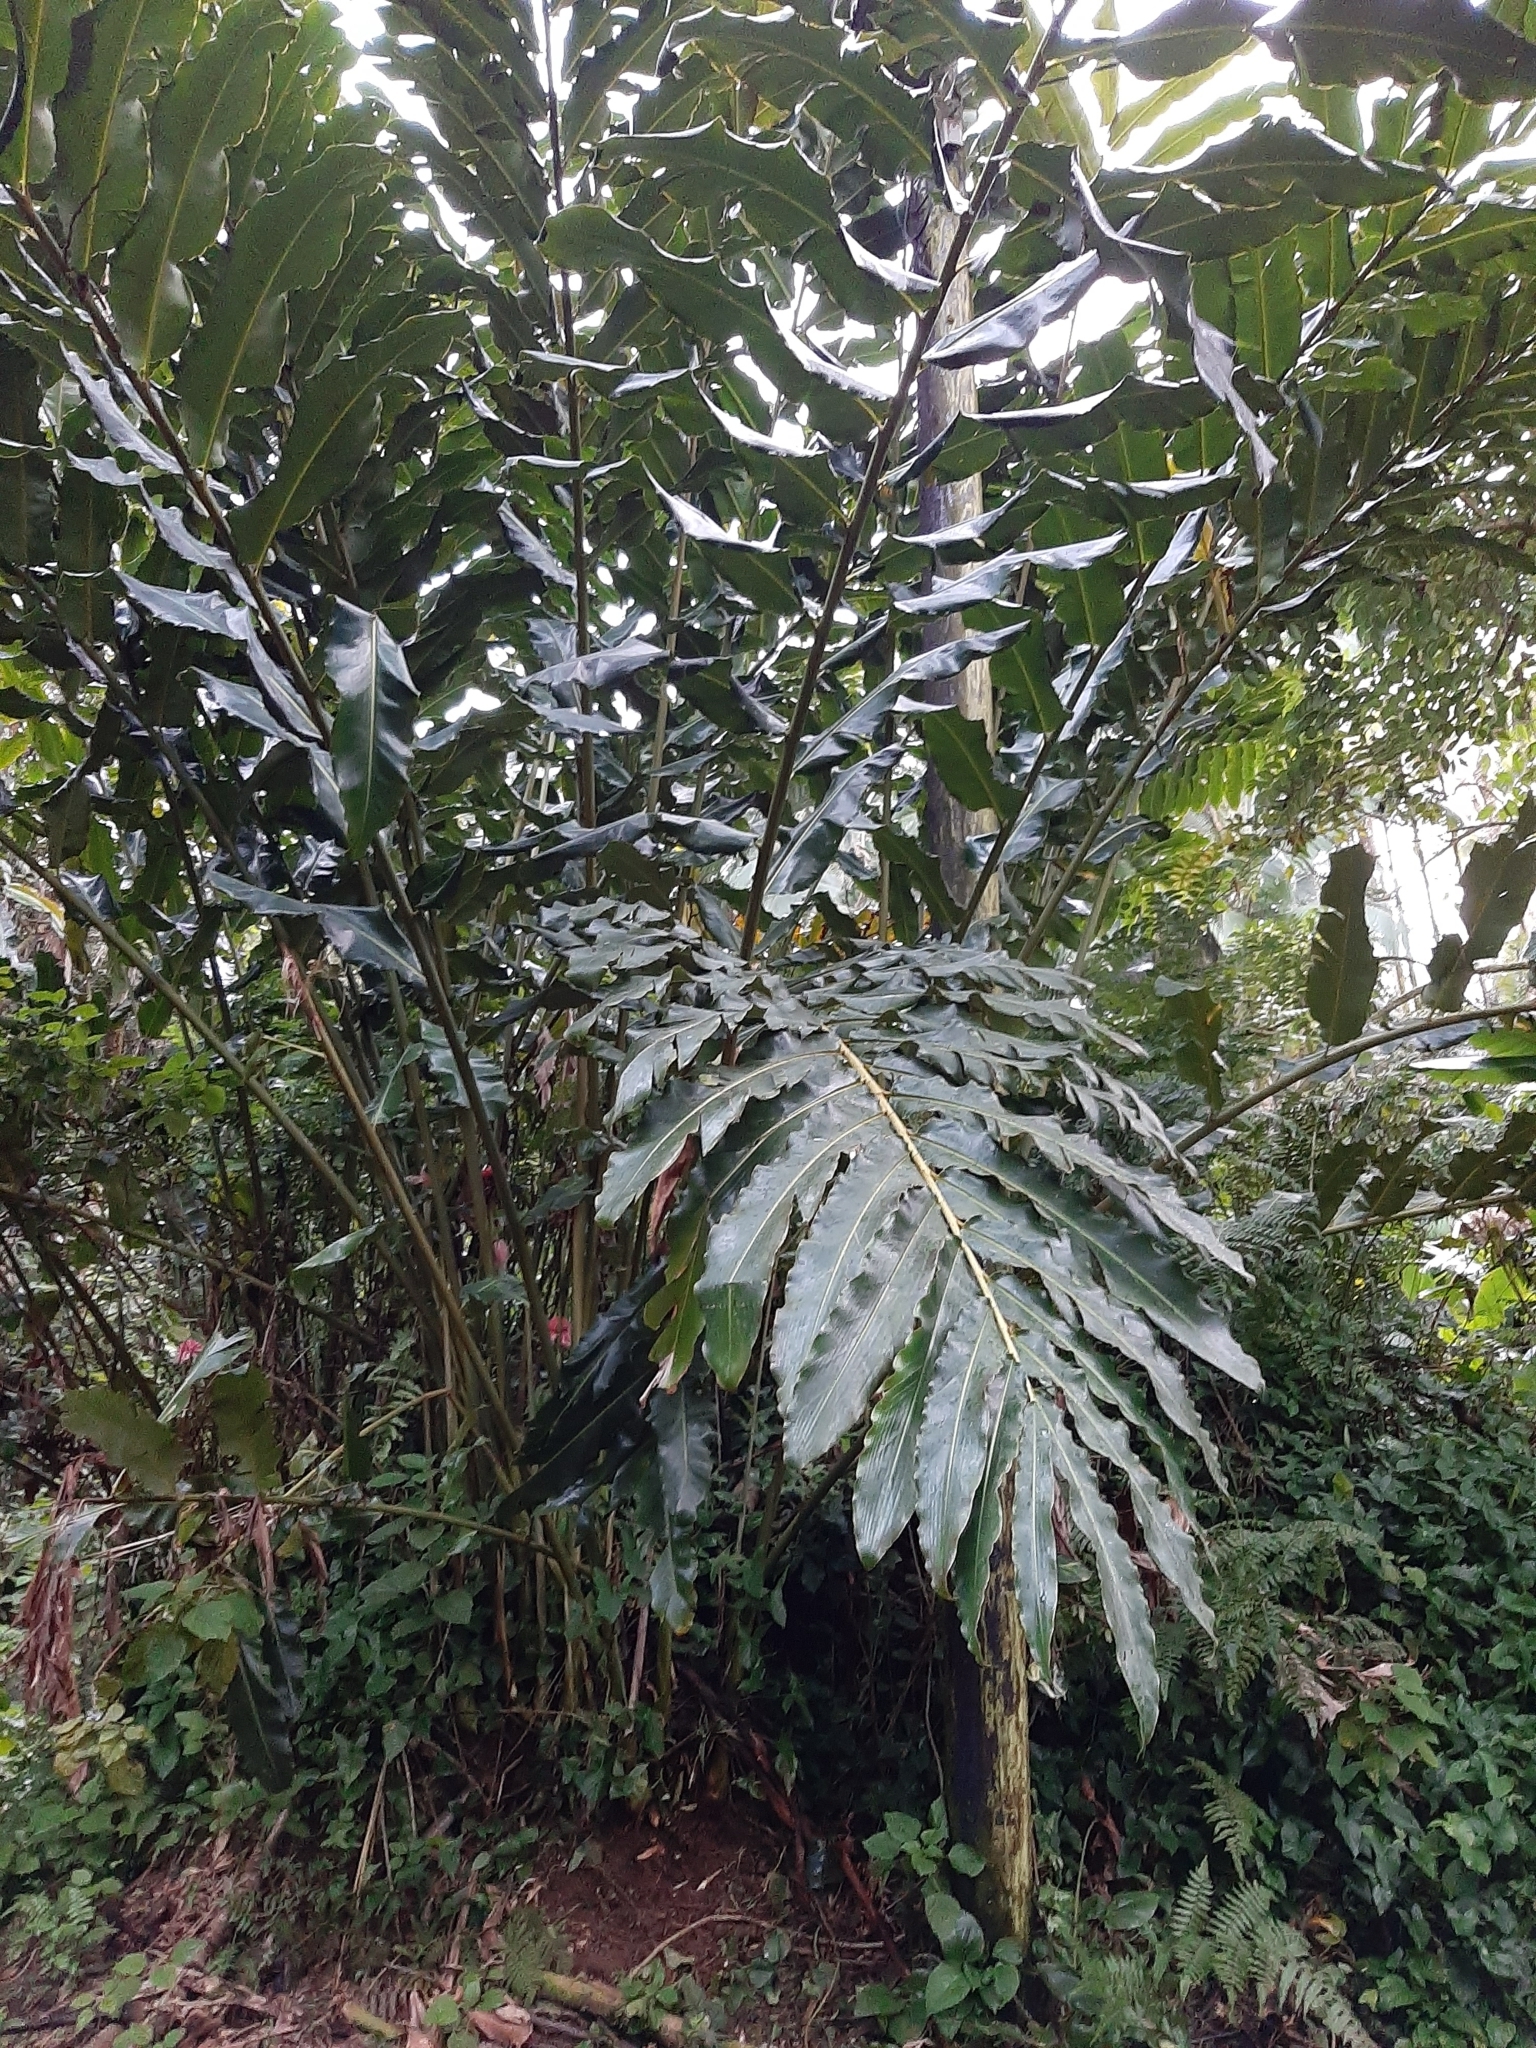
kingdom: Plantae
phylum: Tracheophyta
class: Liliopsida
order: Zingiberales
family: Zingiberaceae
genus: Etlingera
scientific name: Etlingera elatior
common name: Philippine waxflower
